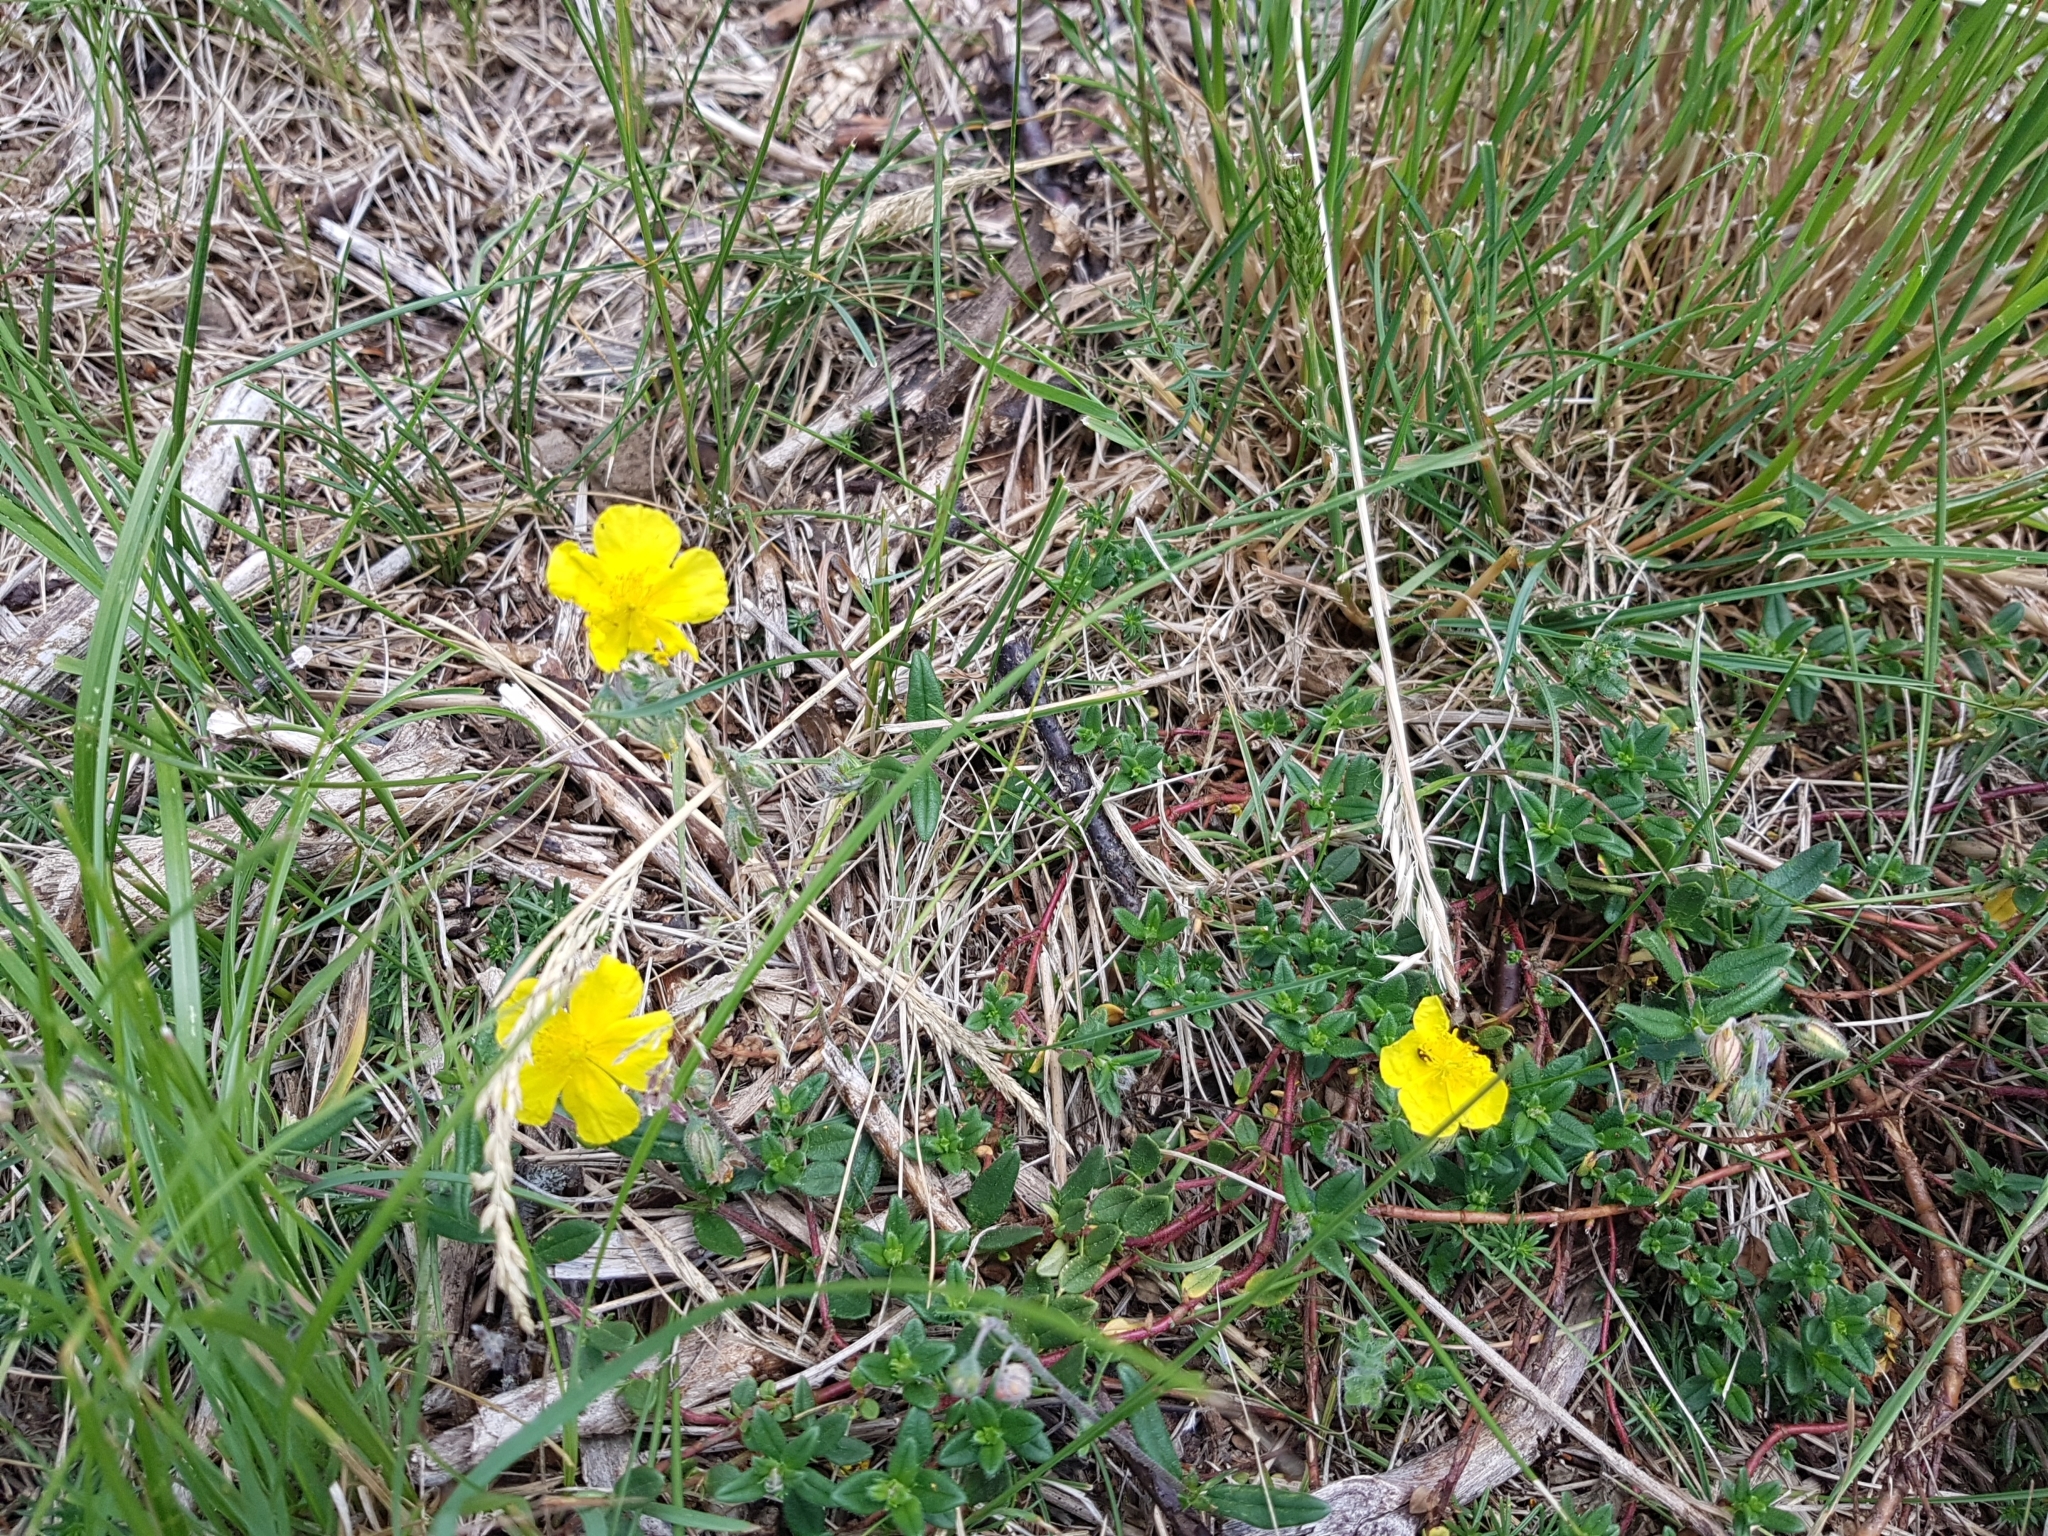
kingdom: Plantae
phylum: Tracheophyta
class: Magnoliopsida
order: Malvales
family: Cistaceae
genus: Helianthemum
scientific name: Helianthemum nummularium
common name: Common rock-rose
